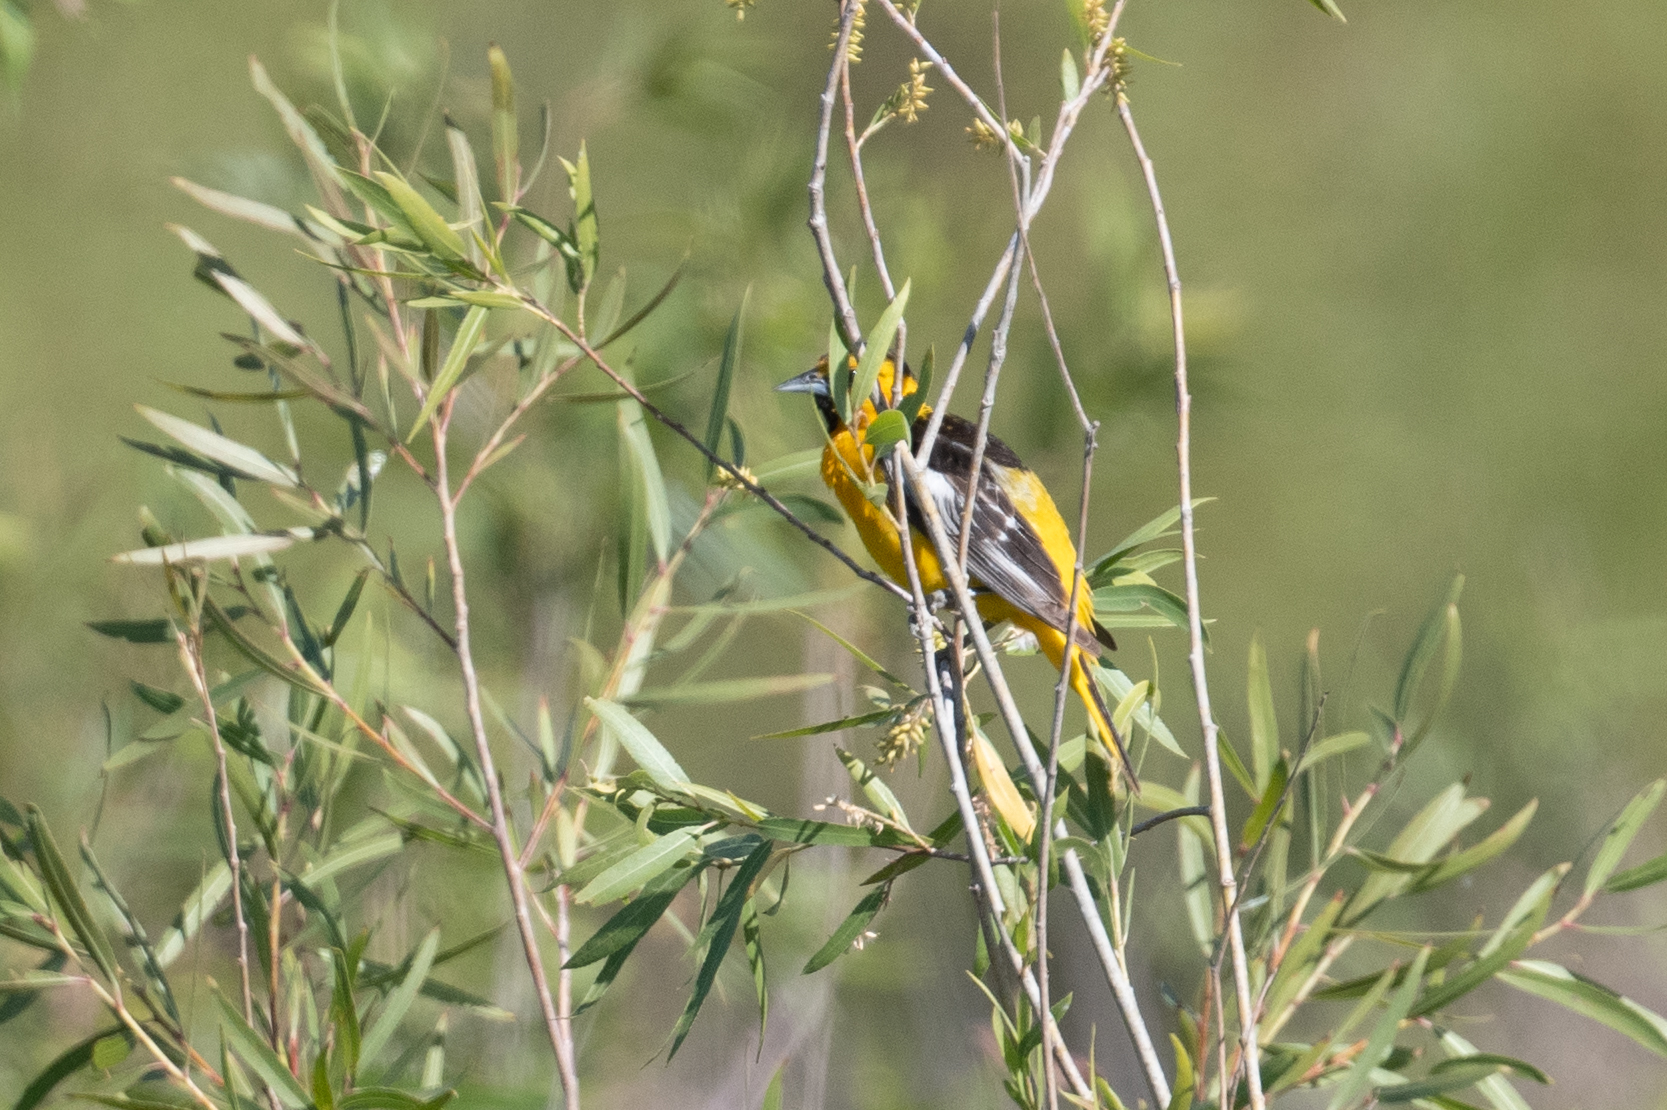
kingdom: Animalia
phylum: Chordata
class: Aves
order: Passeriformes
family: Icteridae
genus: Icterus
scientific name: Icterus bullockii
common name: Bullock's oriole
